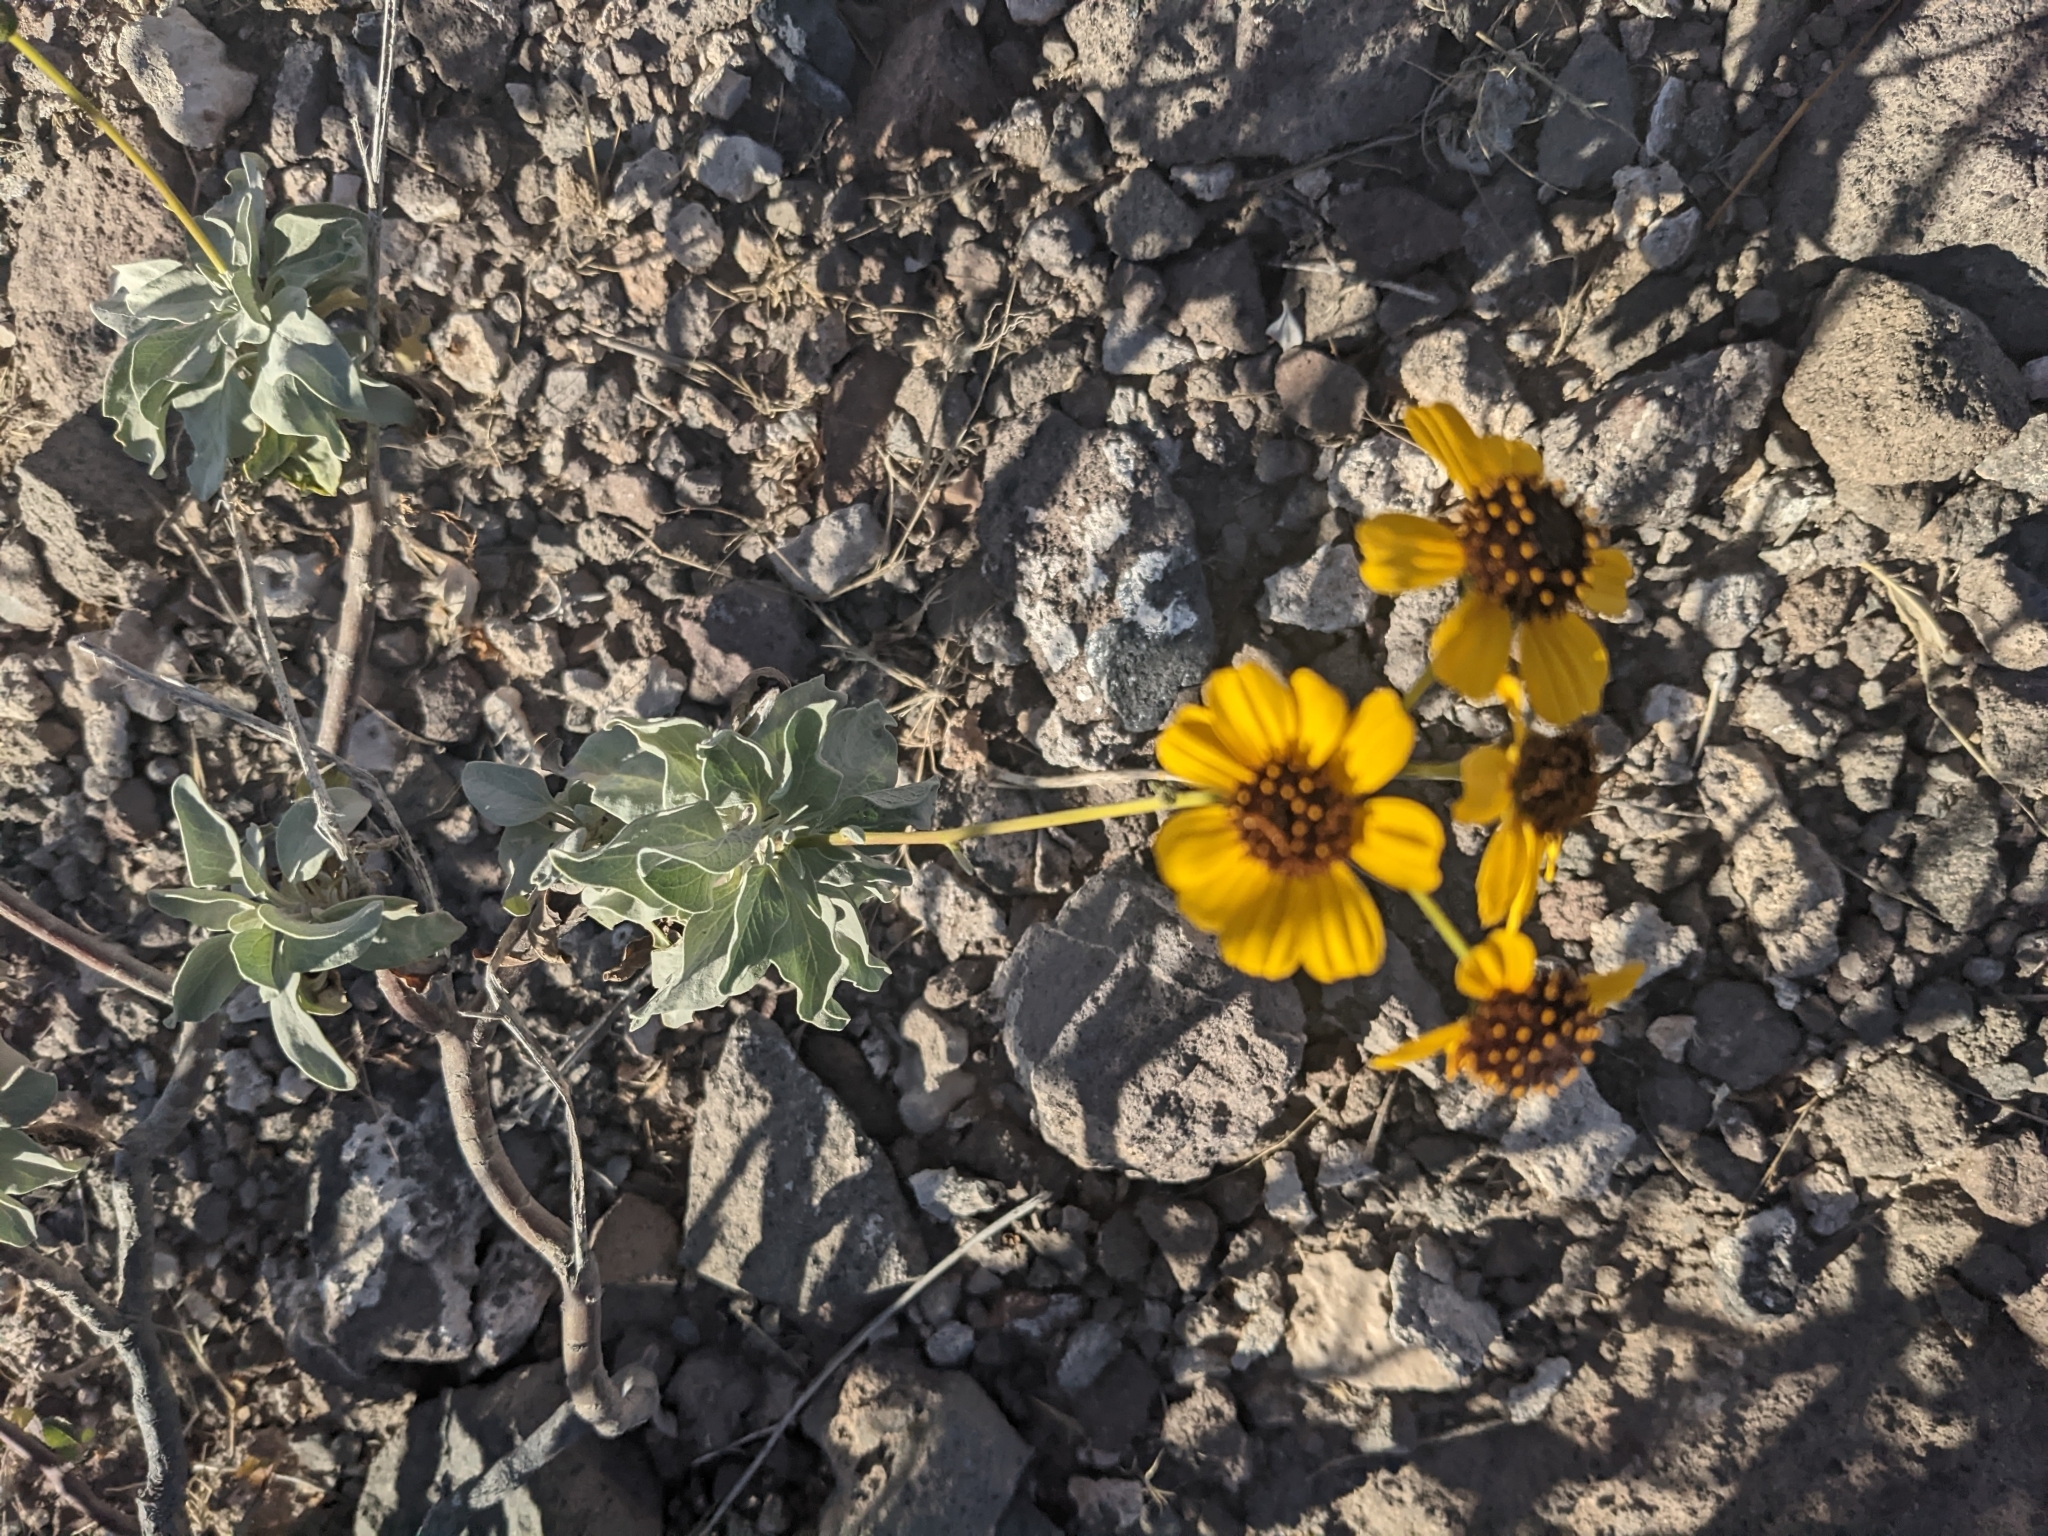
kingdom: Plantae
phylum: Tracheophyta
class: Magnoliopsida
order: Asterales
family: Asteraceae
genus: Encelia
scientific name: Encelia farinosa
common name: Brittlebush
